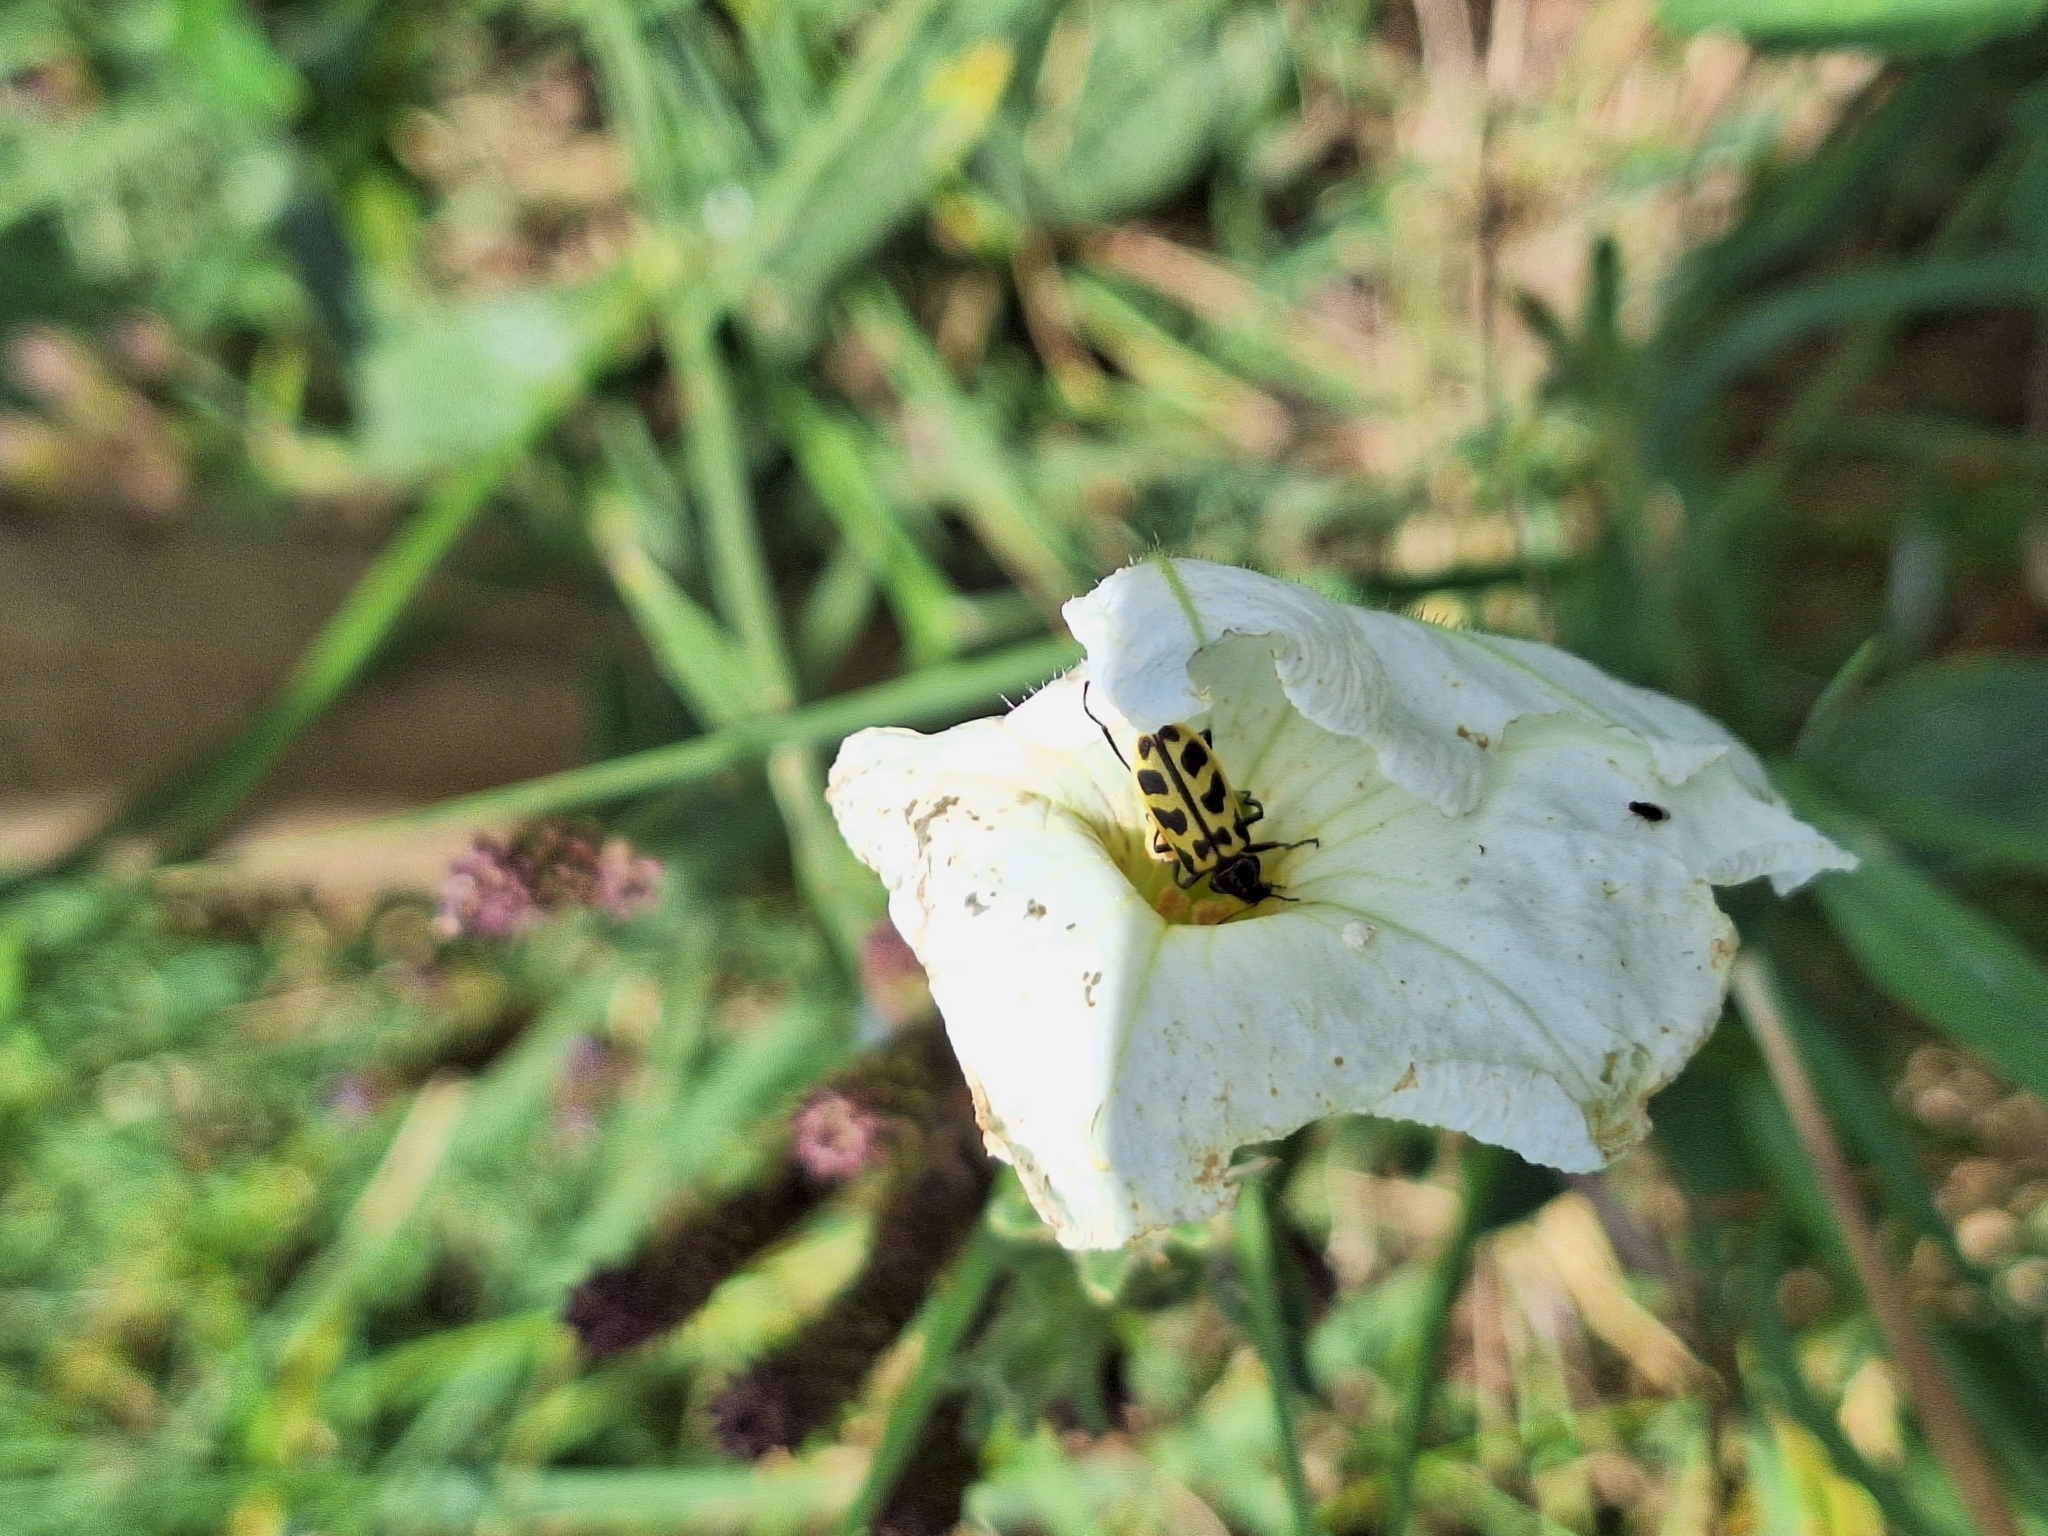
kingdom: Animalia
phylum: Arthropoda
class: Insecta
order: Coleoptera
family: Melyridae
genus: Astylus
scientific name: Astylus atromaculatus
